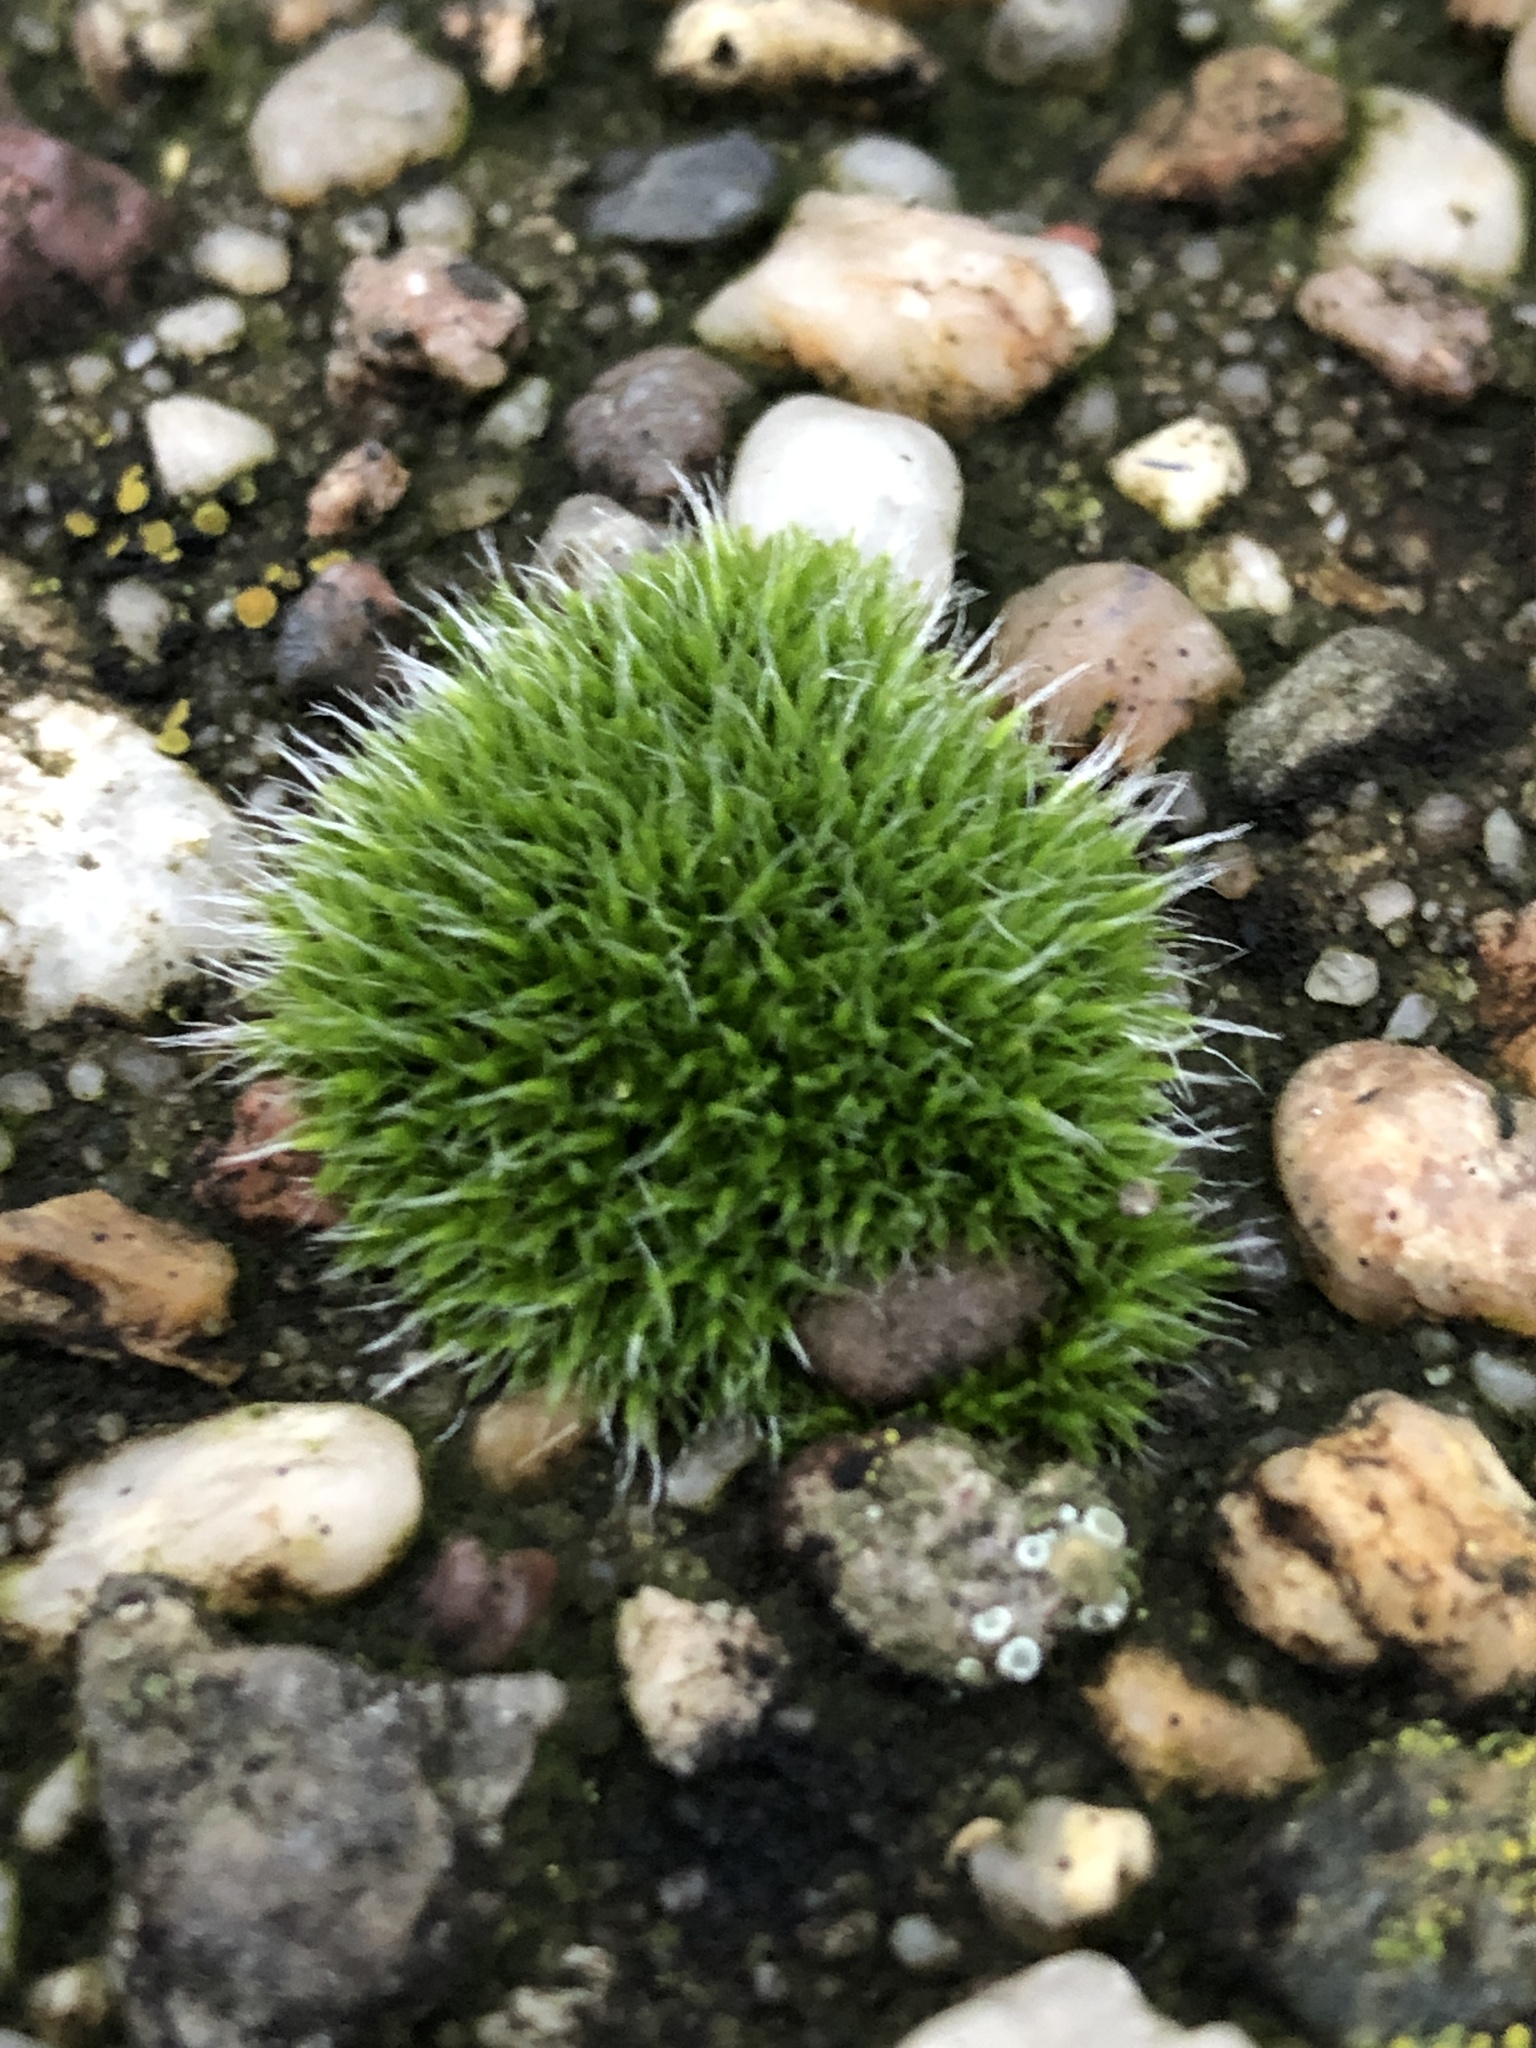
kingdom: Plantae
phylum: Bryophyta
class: Bryopsida
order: Grimmiales
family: Grimmiaceae
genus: Grimmia
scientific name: Grimmia pulvinata
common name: Grey-cushioned grimmia
